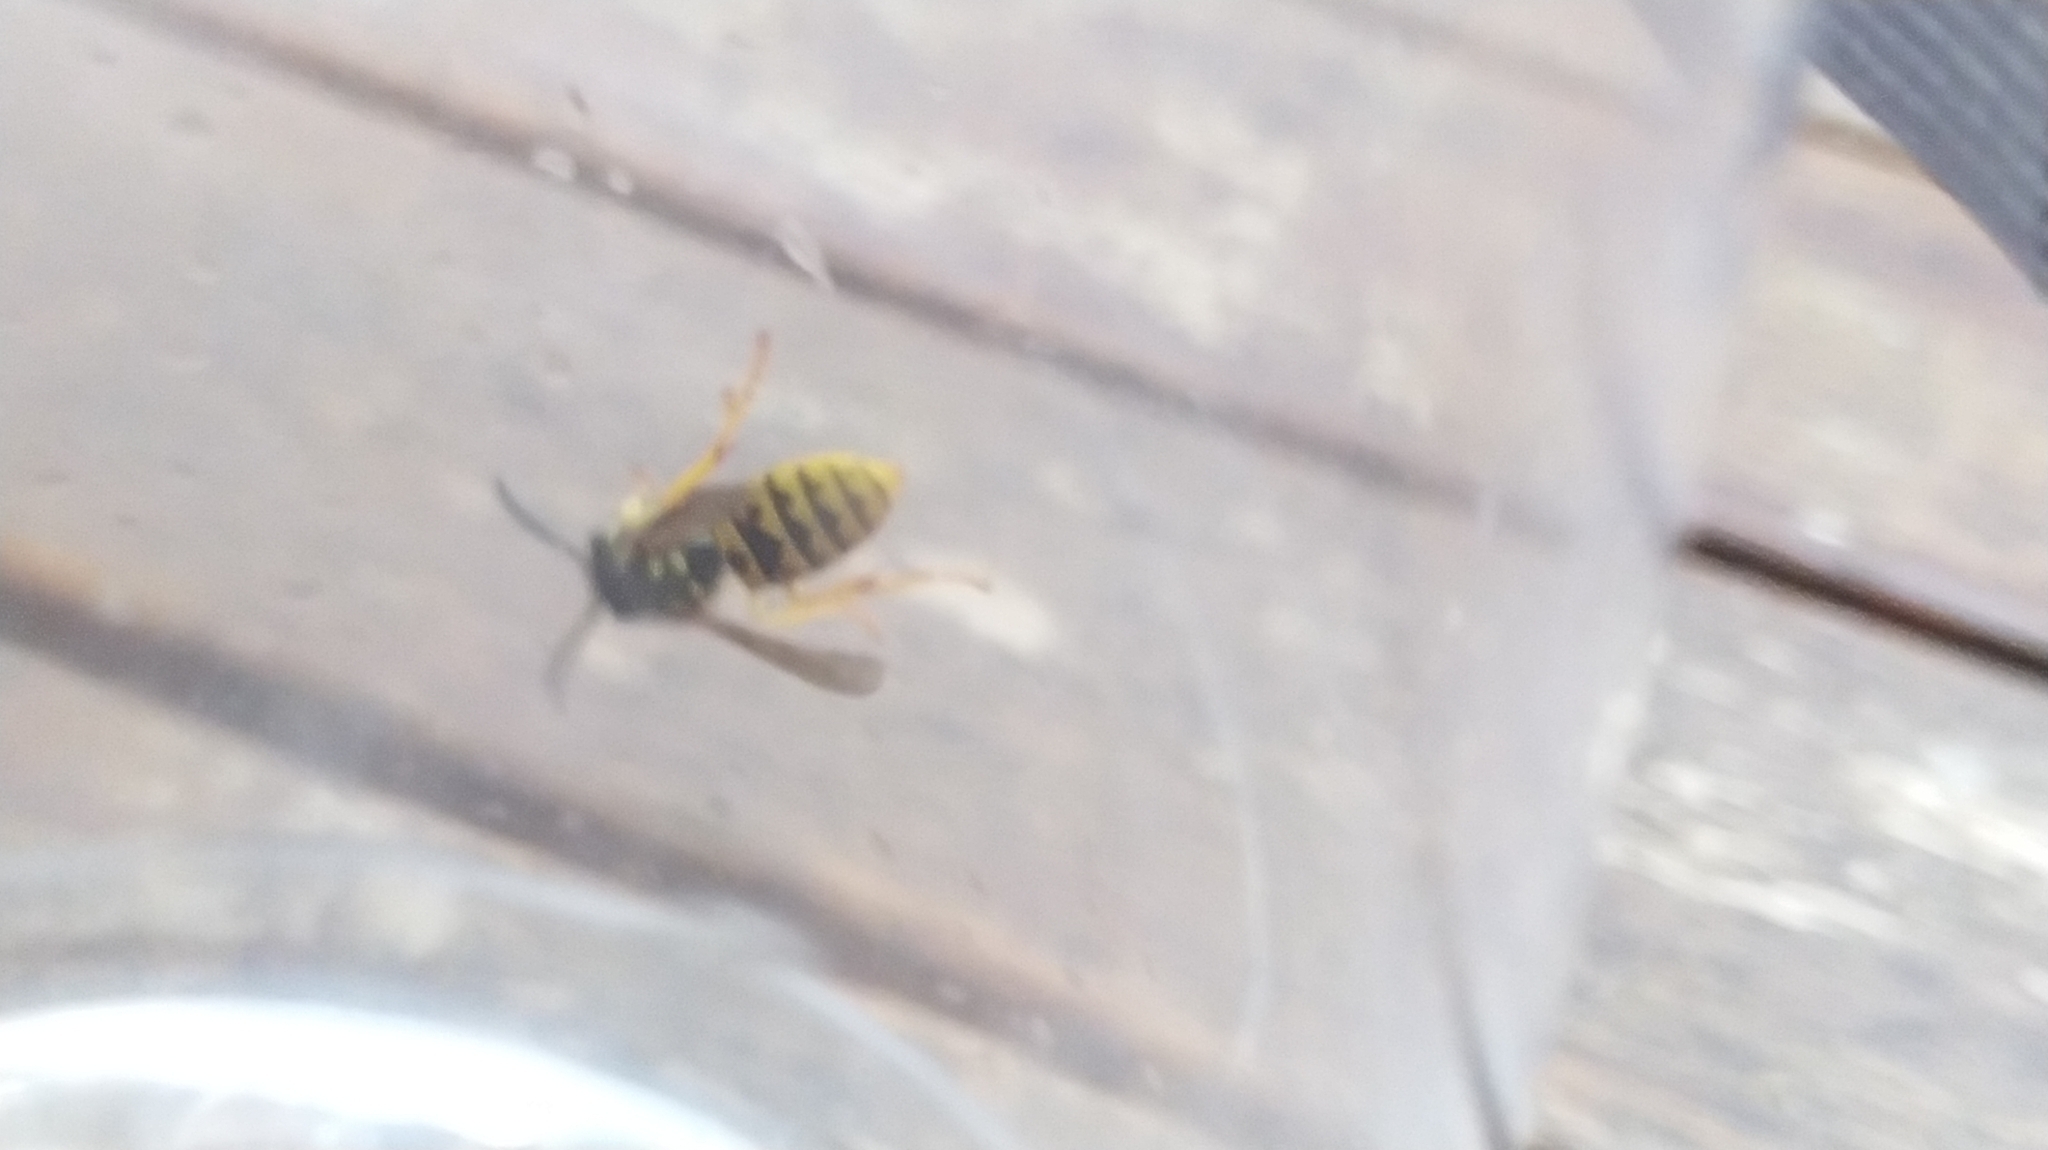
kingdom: Animalia
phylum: Arthropoda
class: Insecta
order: Hymenoptera
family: Vespidae
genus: Vespula
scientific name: Vespula germanica
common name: German wasp
